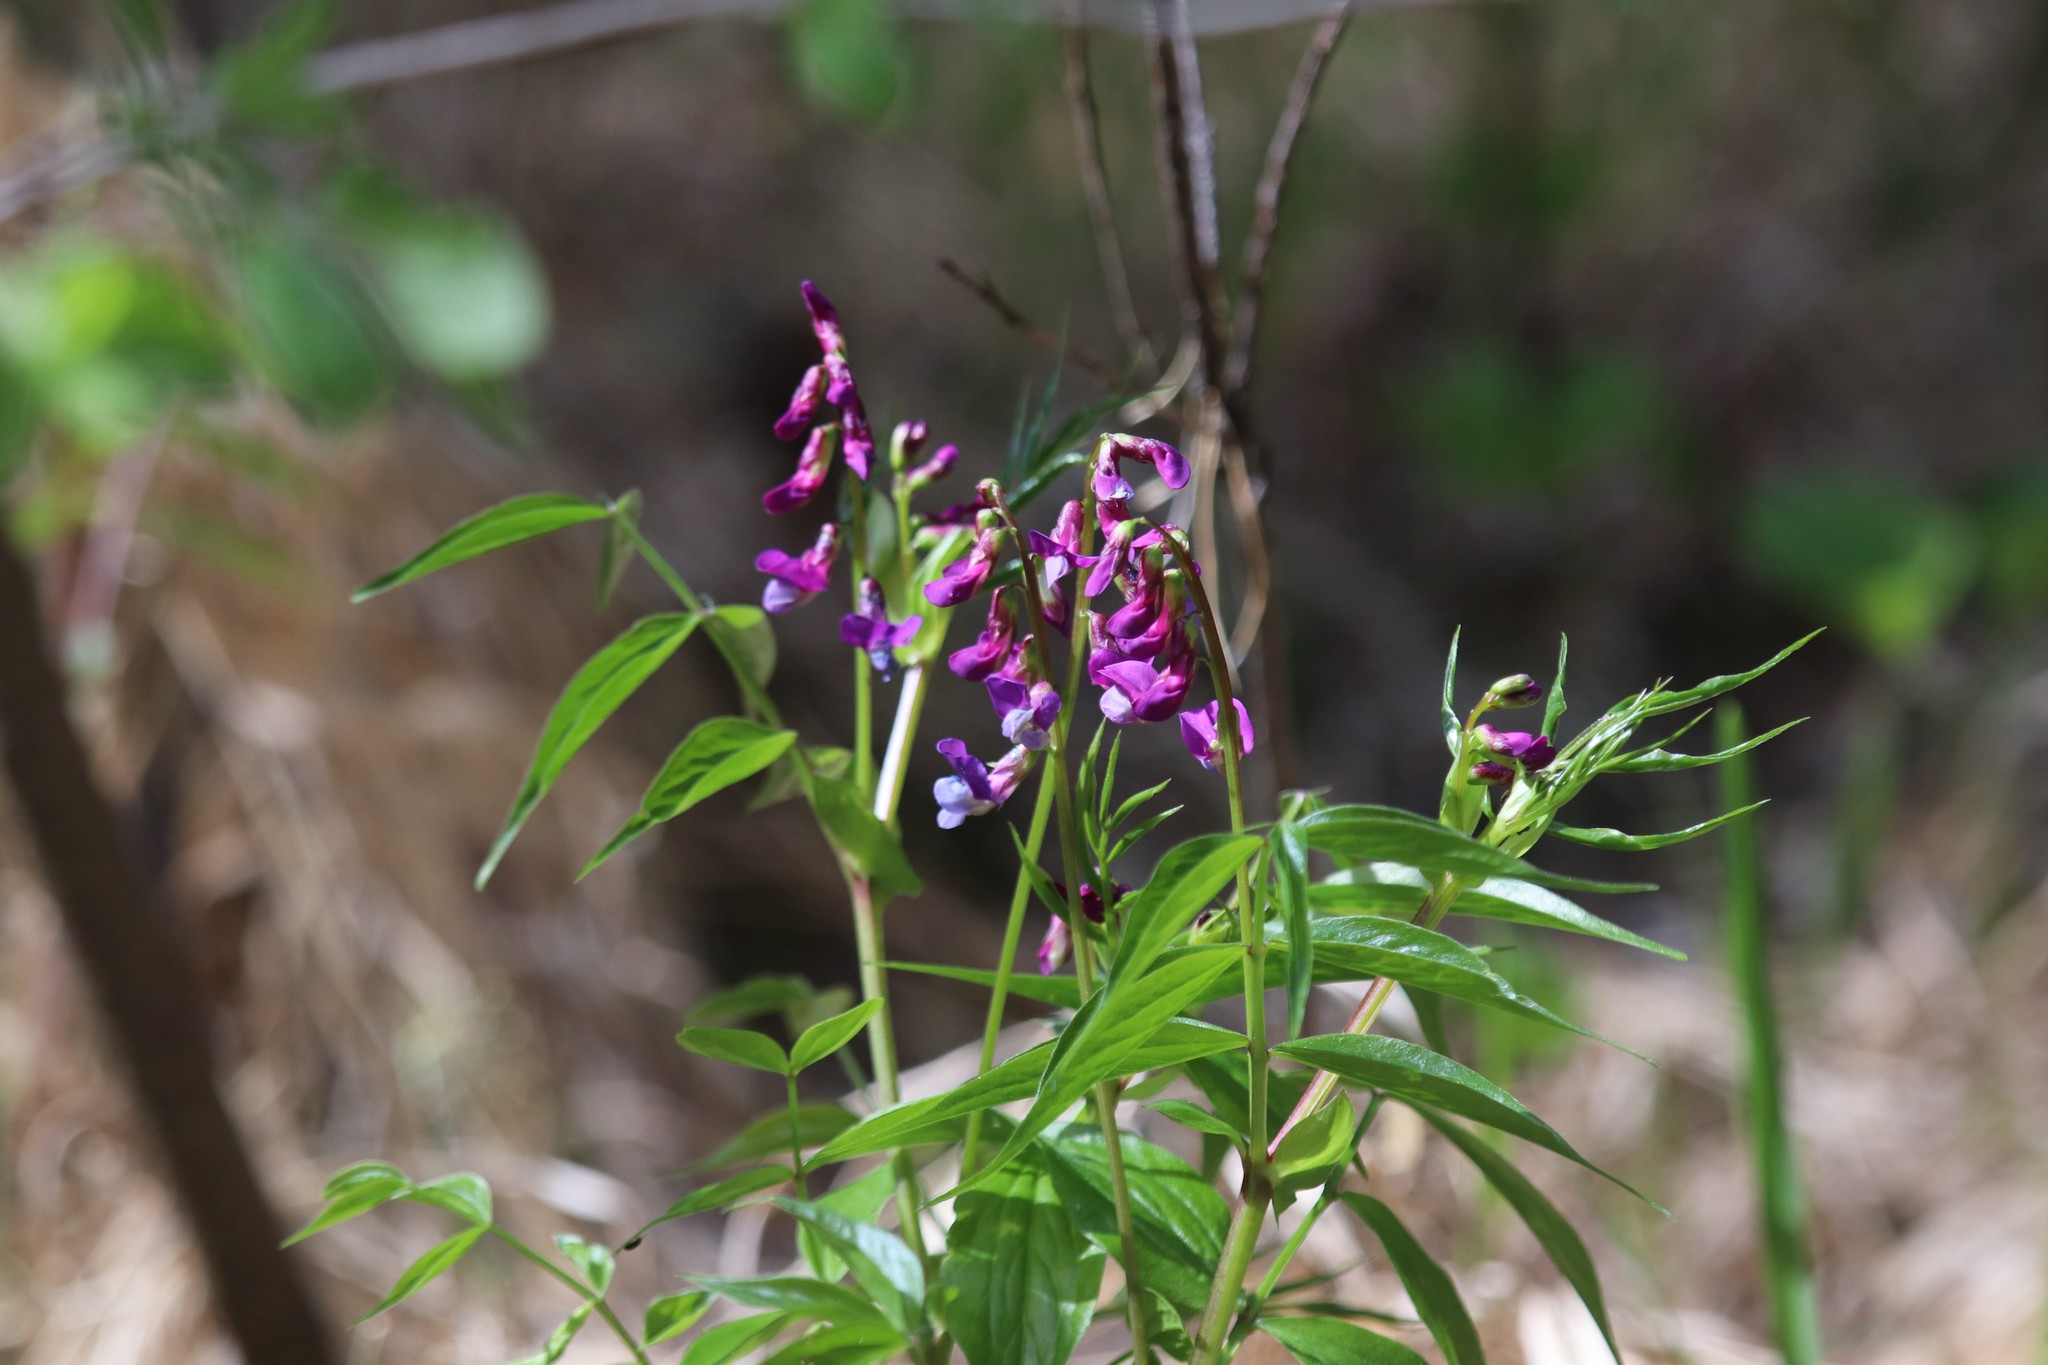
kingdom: Plantae
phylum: Tracheophyta
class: Magnoliopsida
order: Fabales
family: Fabaceae
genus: Lathyrus
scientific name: Lathyrus vernus
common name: Spring pea
